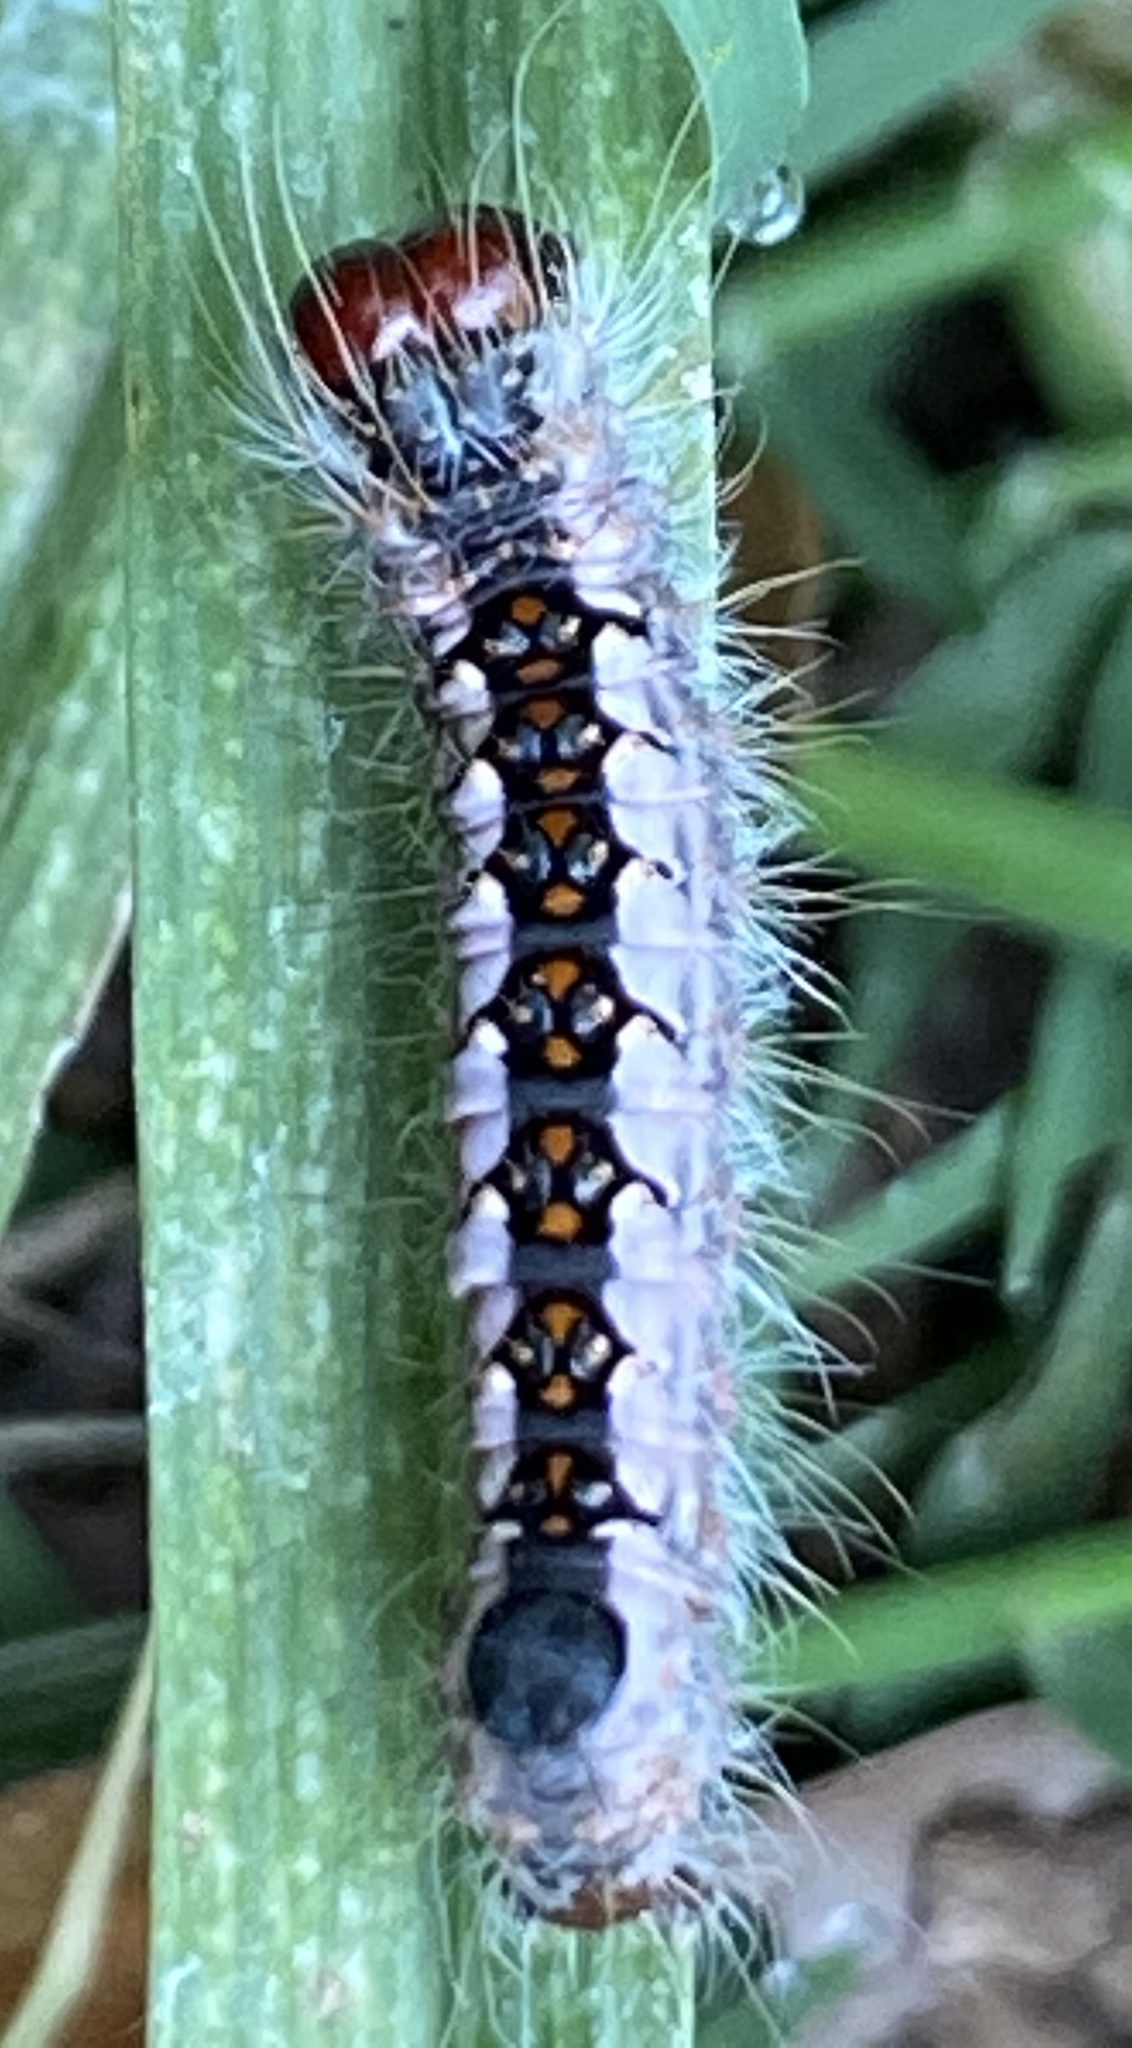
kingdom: Animalia
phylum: Arthropoda
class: Insecta
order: Lepidoptera
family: Noctuidae
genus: Acronicta
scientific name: Acronicta interrupta
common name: Interrupted dagger
